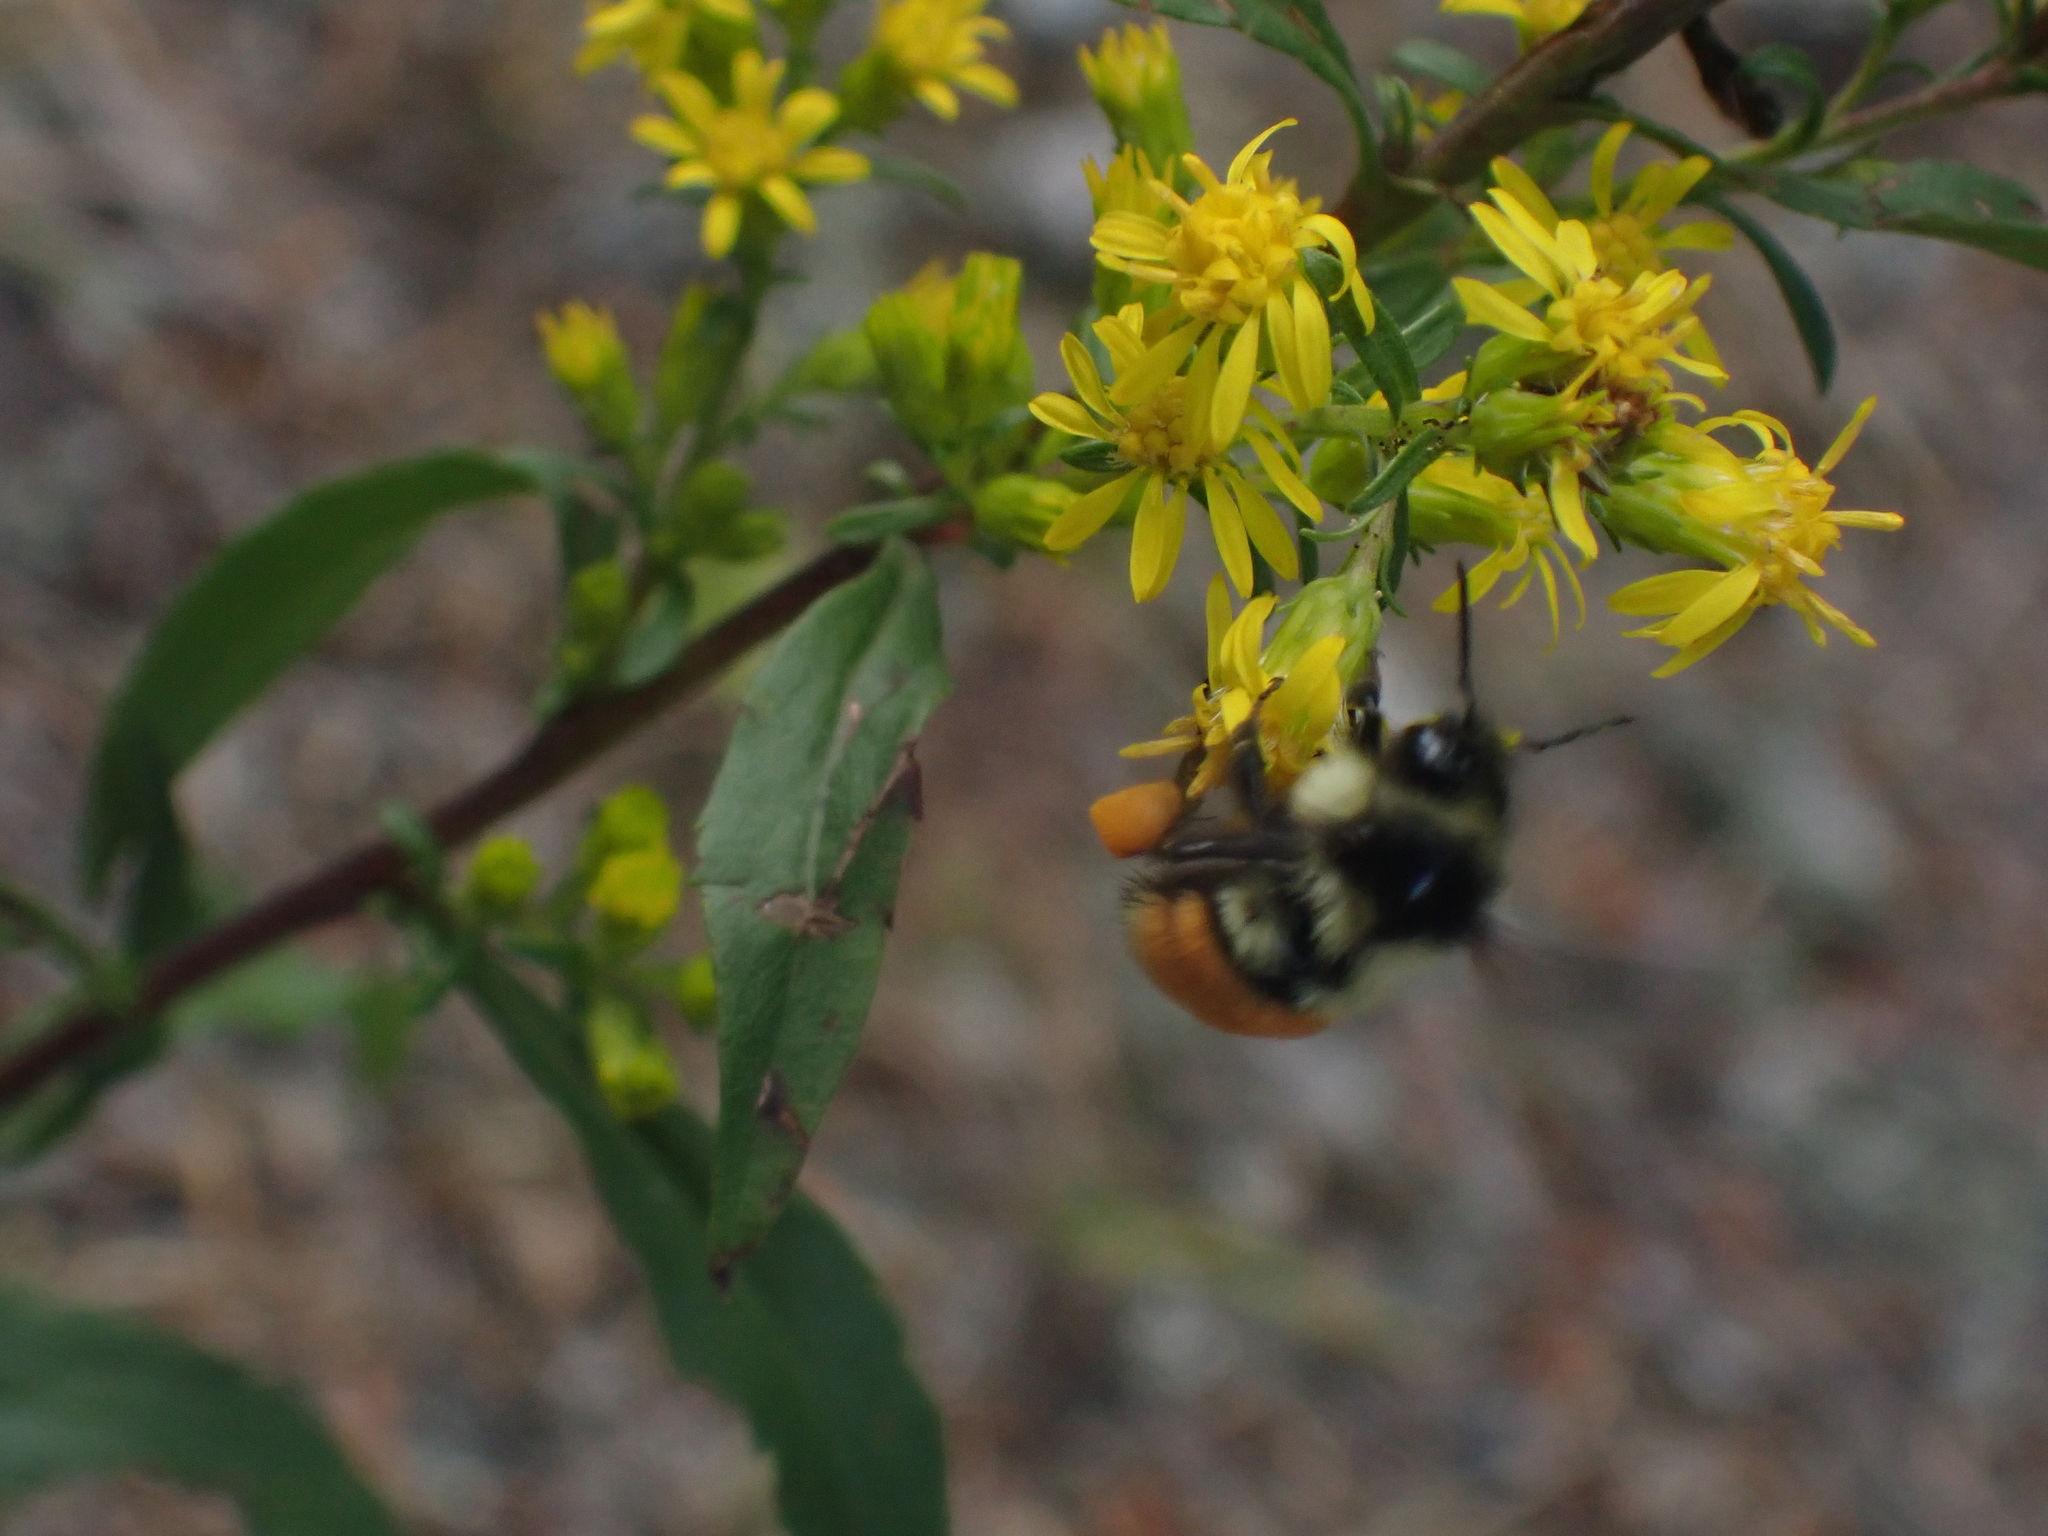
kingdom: Animalia
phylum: Arthropoda
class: Insecta
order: Hymenoptera
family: Apidae
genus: Bombus
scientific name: Bombus ternarius
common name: Tri-colored bumble bee
